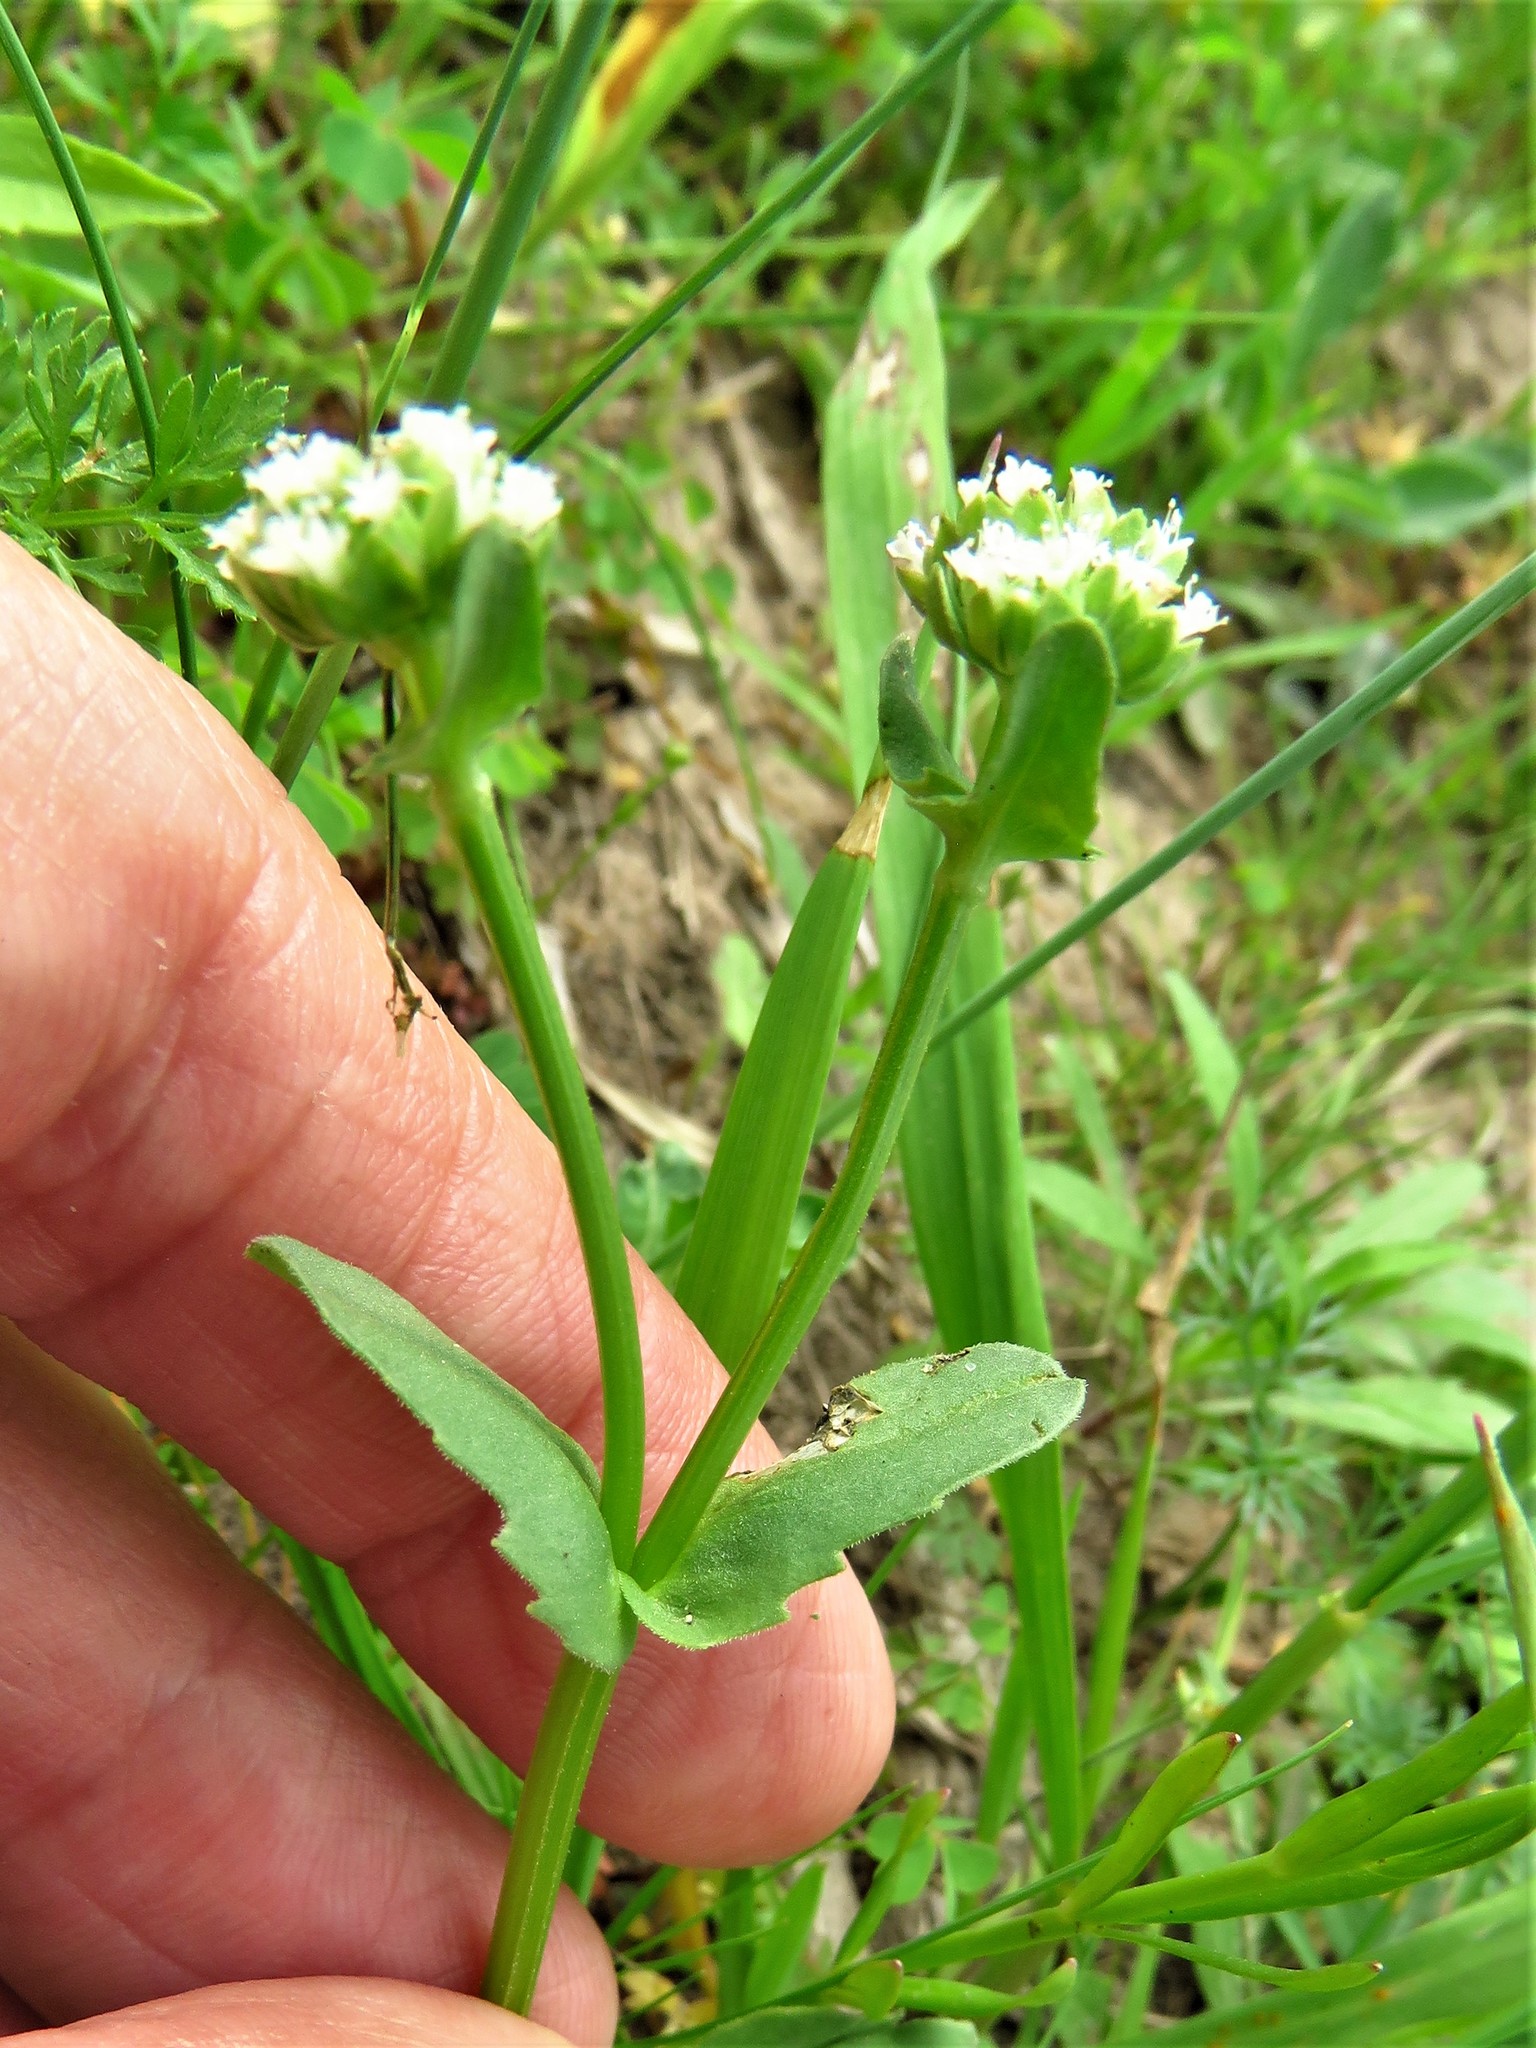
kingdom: Plantae
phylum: Tracheophyta
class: Magnoliopsida
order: Dipsacales
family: Caprifoliaceae
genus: Valerianella
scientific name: Valerianella radiata
